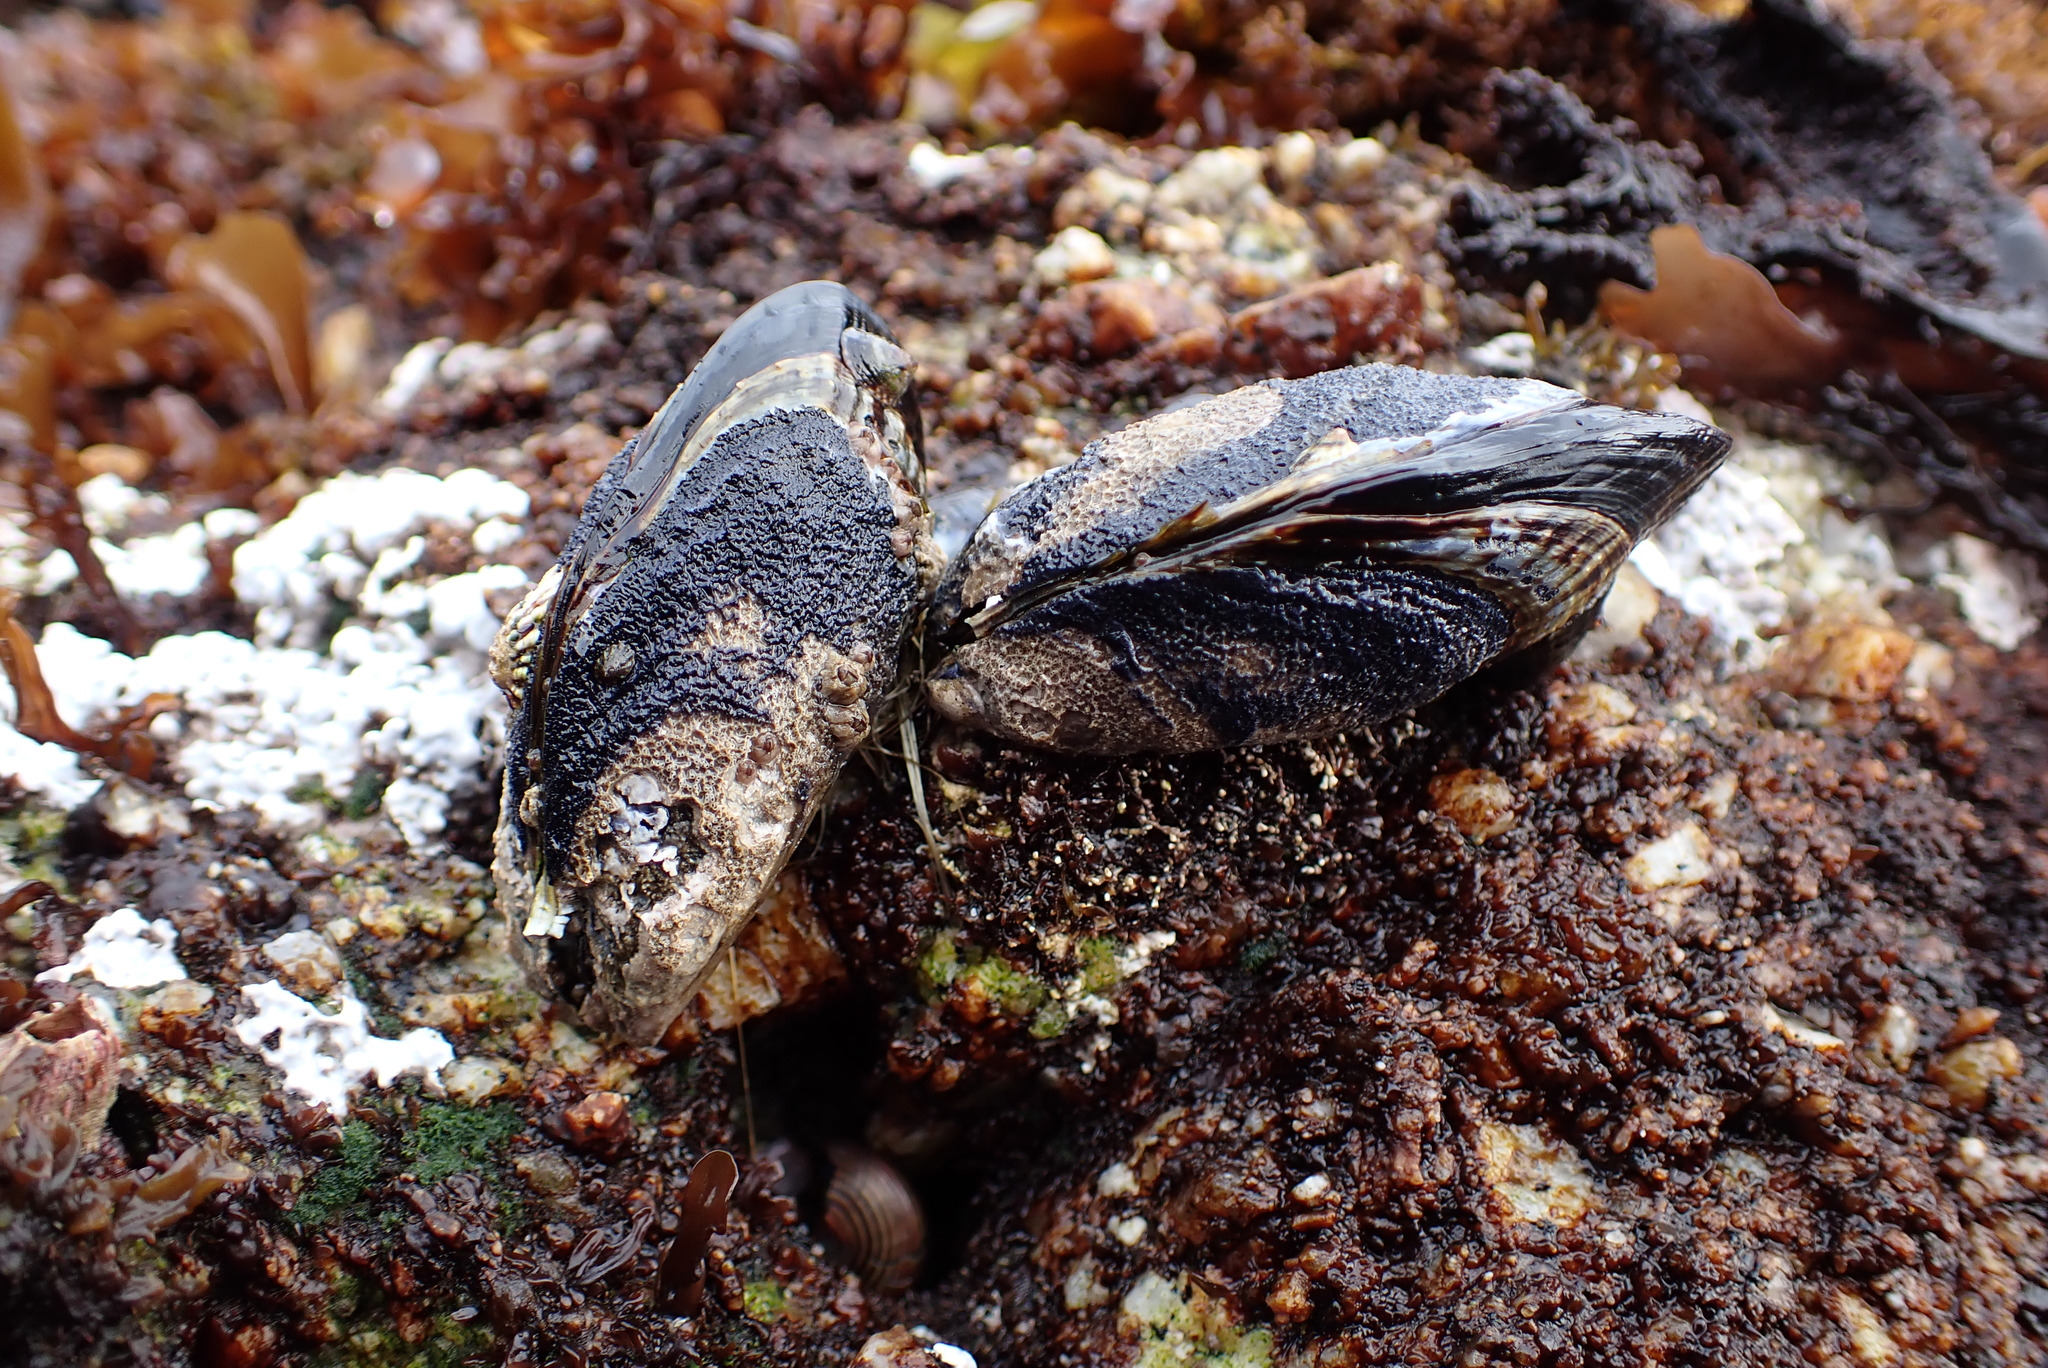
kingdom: Animalia
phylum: Mollusca
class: Bivalvia
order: Mytilida
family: Mytilidae
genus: Mytilus
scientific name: Mytilus californianus
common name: California mussel
